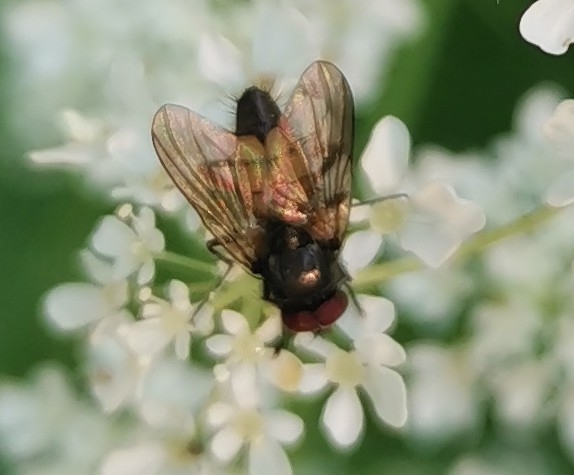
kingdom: Animalia
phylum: Arthropoda
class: Insecta
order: Diptera
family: Muscidae
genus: Thricops
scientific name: Thricops semicinereus
